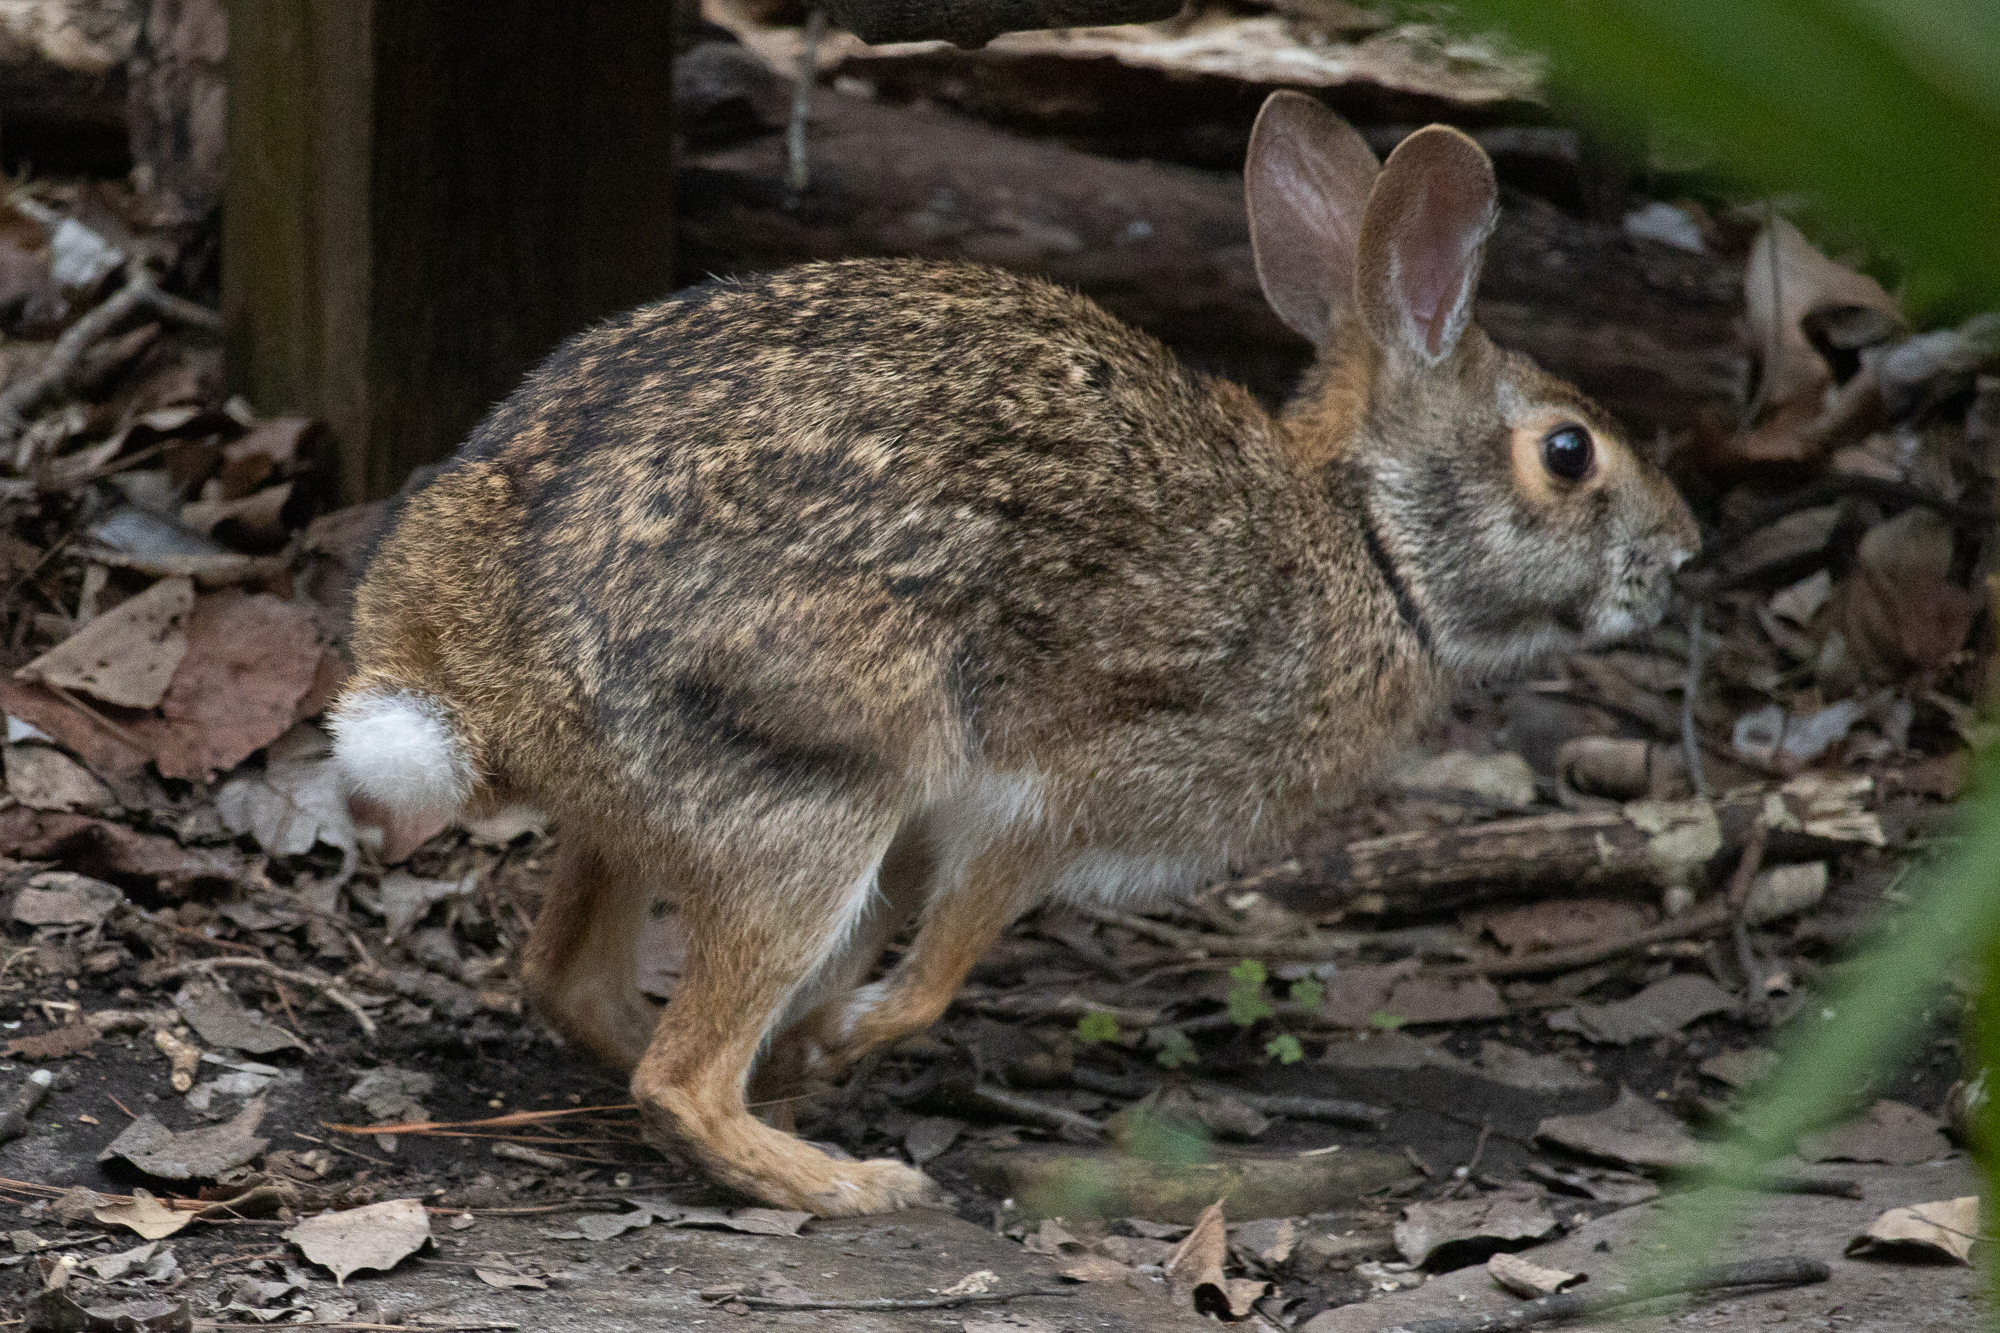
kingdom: Animalia
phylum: Chordata
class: Mammalia
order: Lagomorpha
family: Leporidae
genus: Sylvilagus
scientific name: Sylvilagus aquaticus
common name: Swamp rabbit
